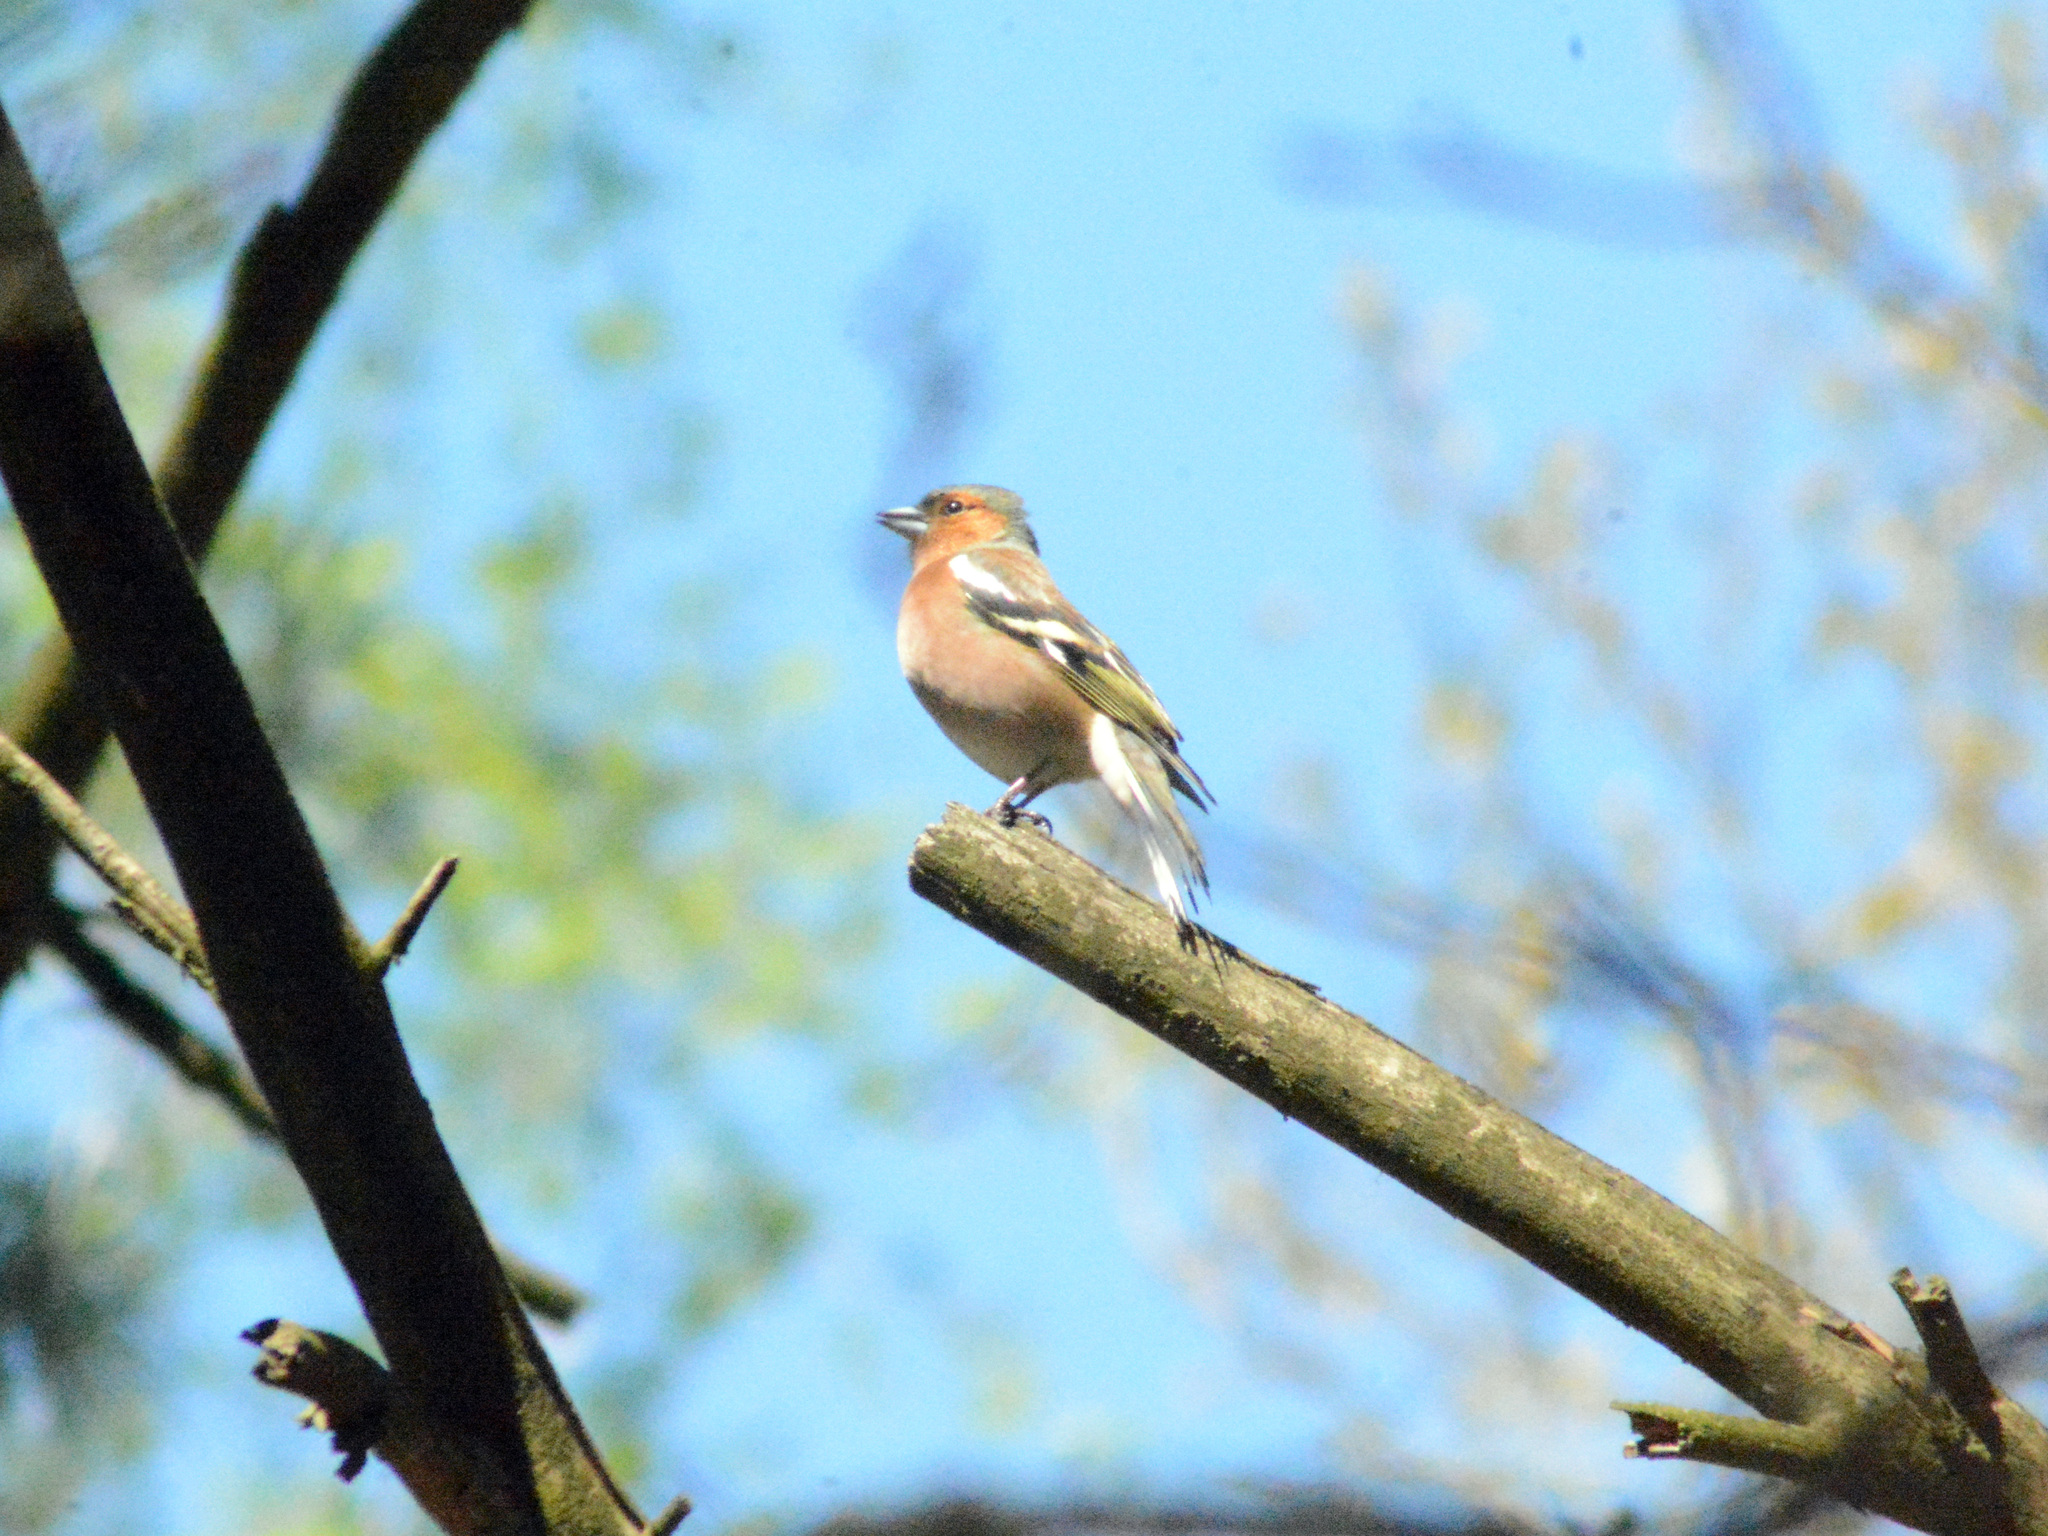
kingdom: Animalia
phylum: Chordata
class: Aves
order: Passeriformes
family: Fringillidae
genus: Fringilla
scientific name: Fringilla coelebs
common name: Common chaffinch
